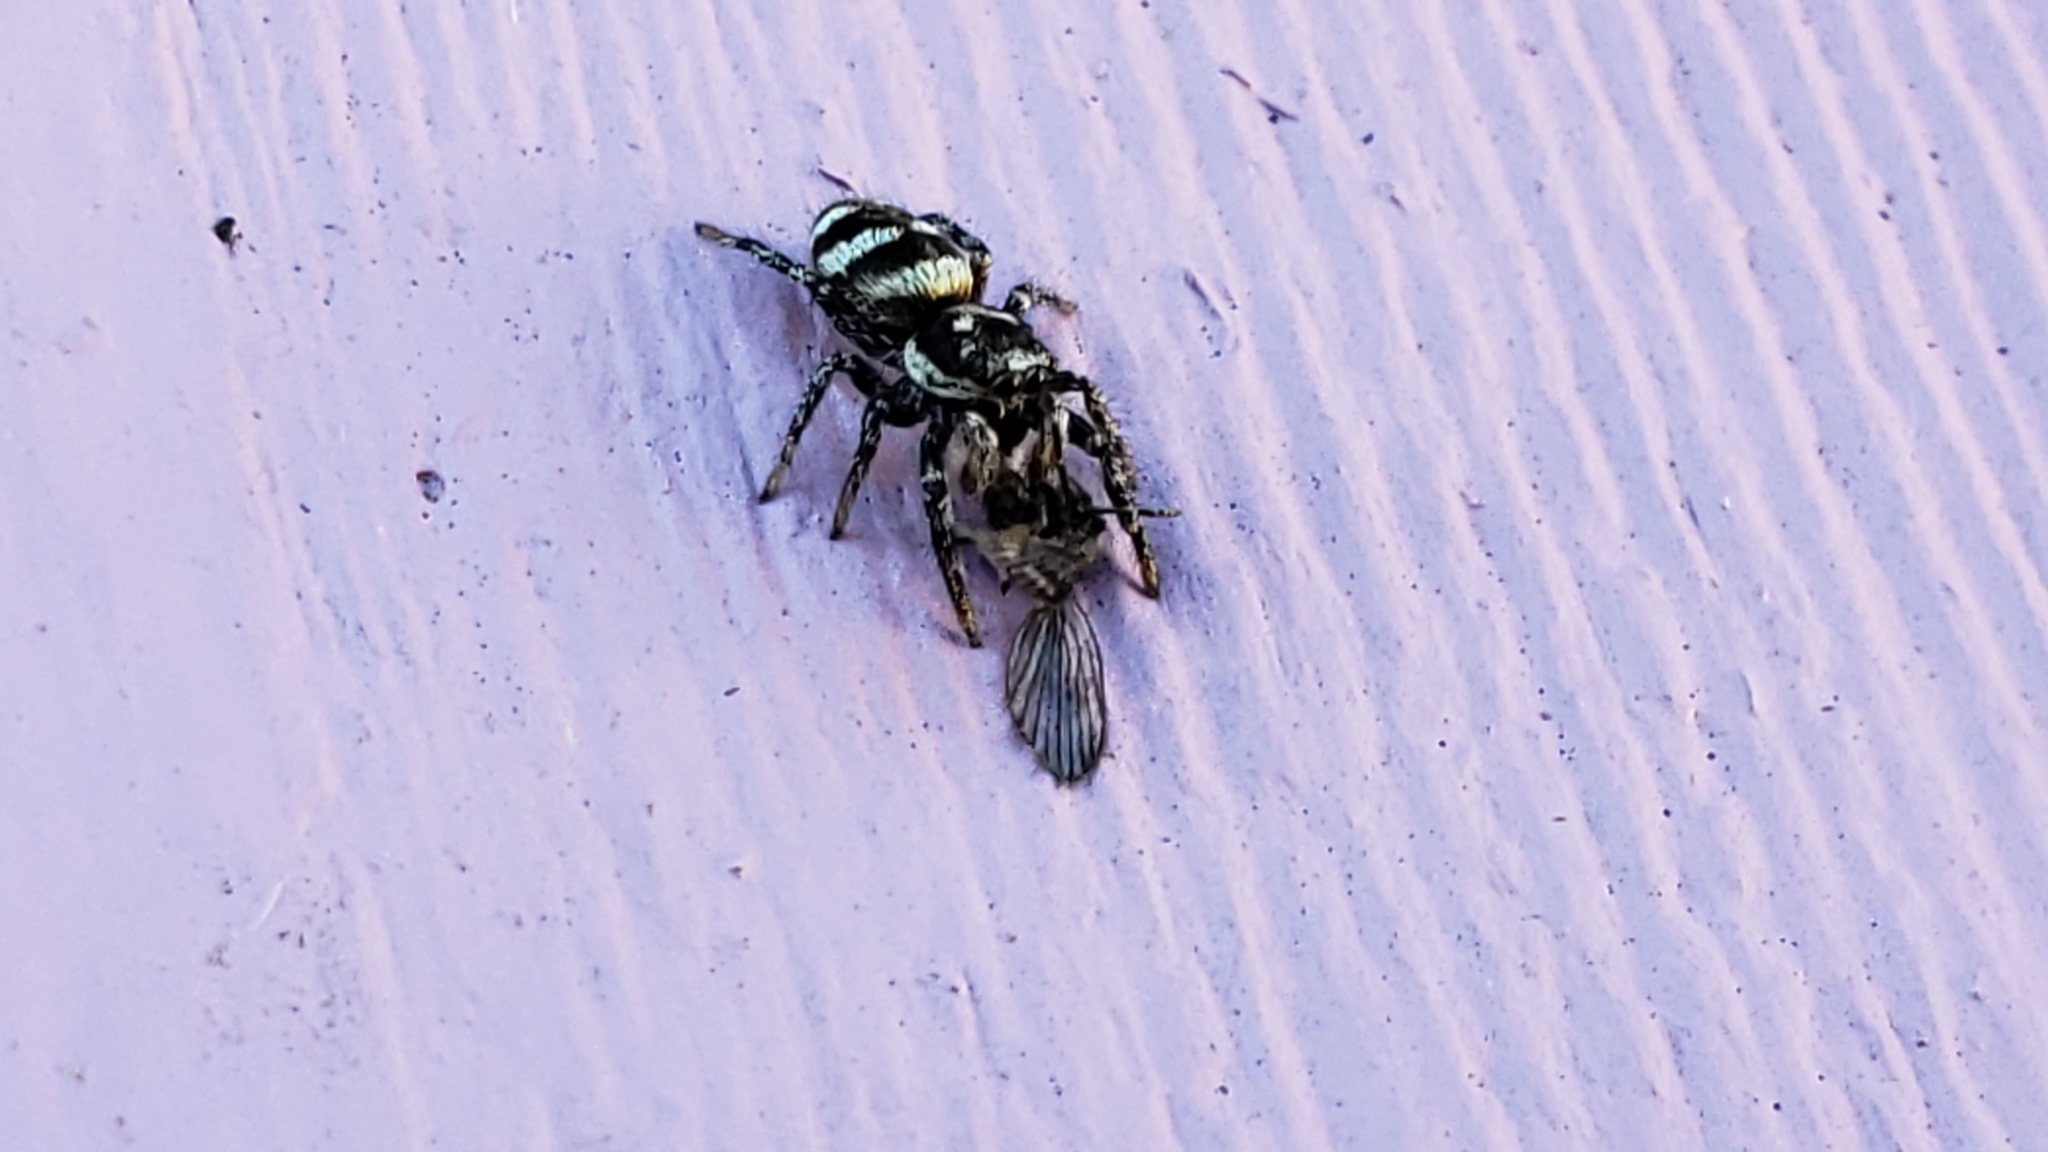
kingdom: Animalia
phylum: Arthropoda
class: Arachnida
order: Araneae
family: Salticidae
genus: Salticus
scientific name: Salticus scenicus
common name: Zebra jumper
